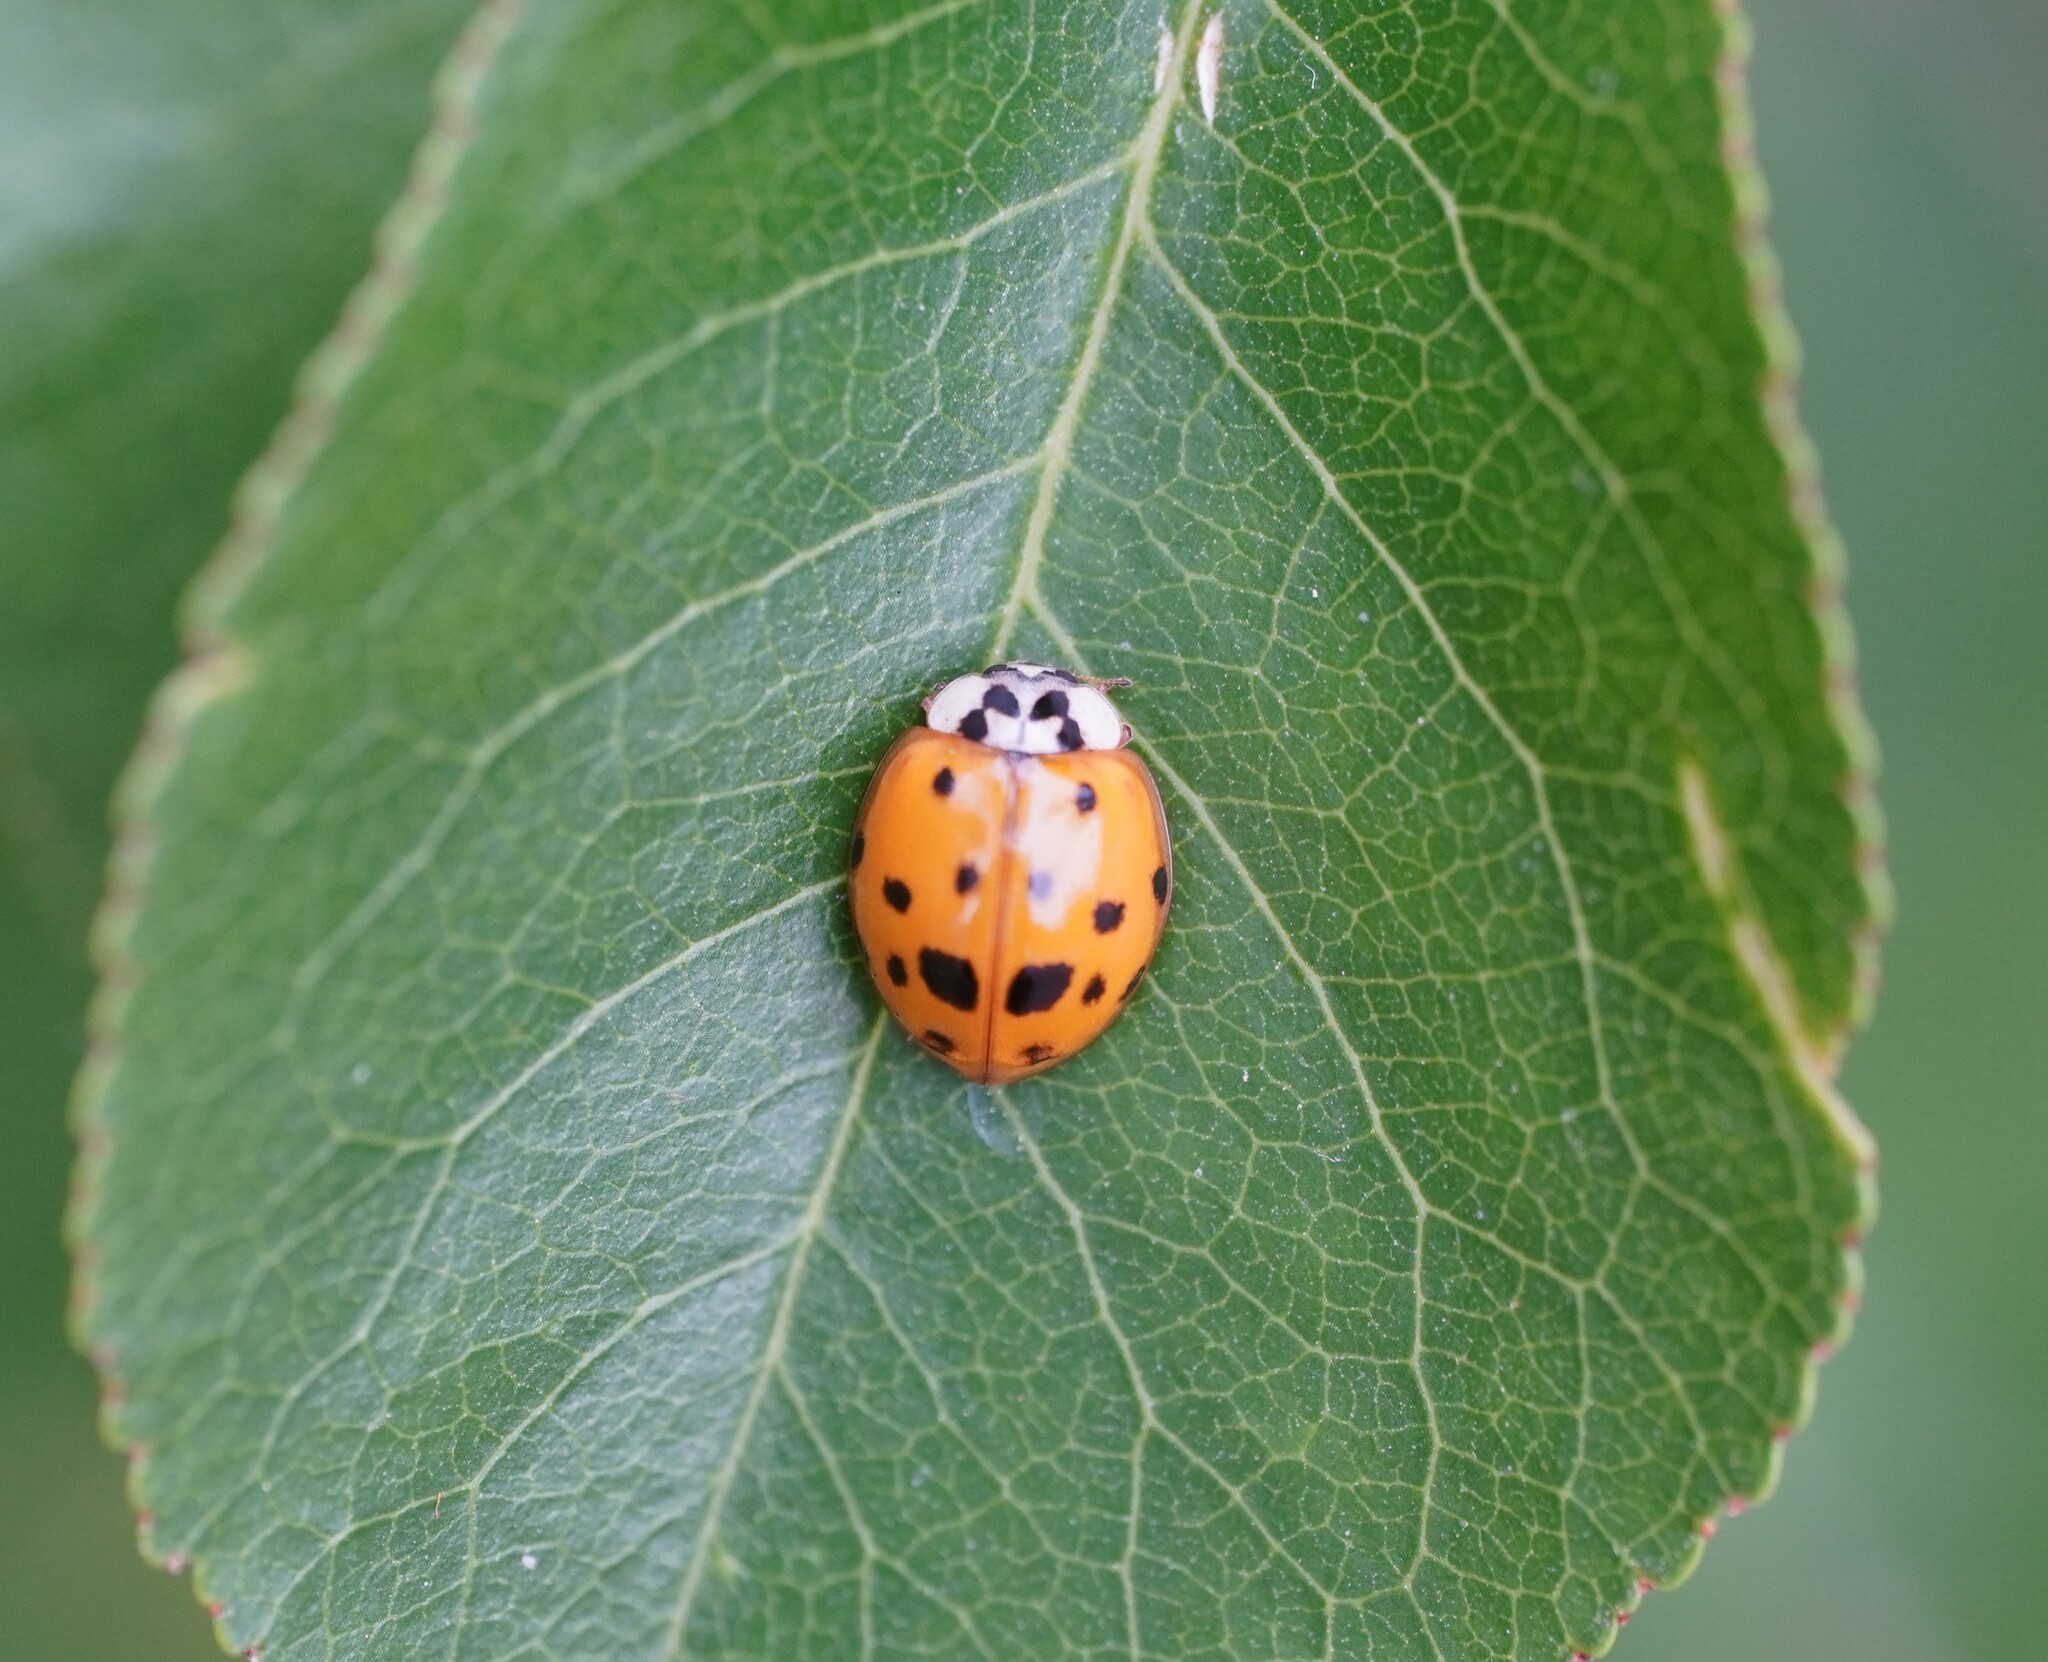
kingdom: Animalia
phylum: Arthropoda
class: Insecta
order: Coleoptera
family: Coccinellidae
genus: Harmonia
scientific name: Harmonia axyridis
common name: Harlequin ladybird
